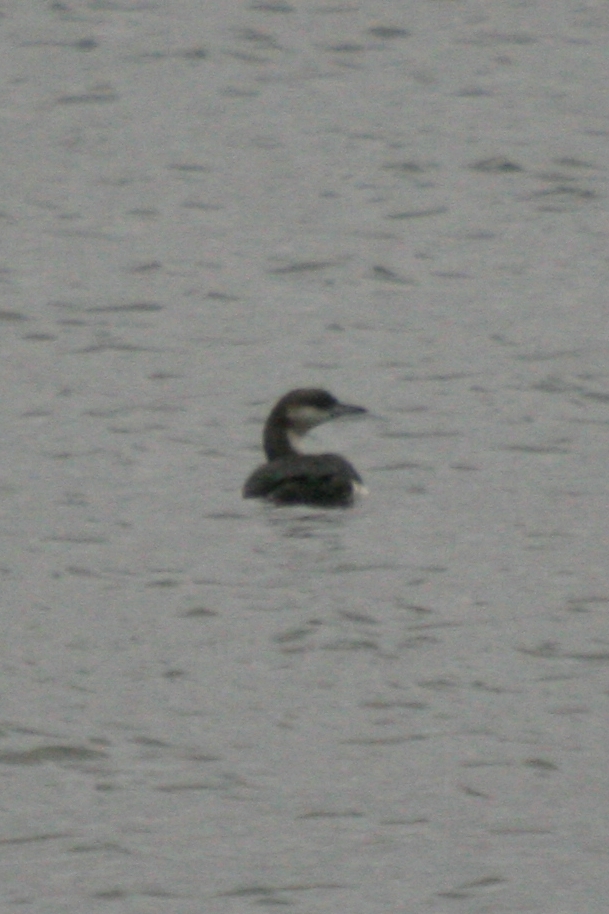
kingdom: Animalia
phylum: Chordata
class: Aves
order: Gaviiformes
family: Gaviidae
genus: Gavia
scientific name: Gavia arctica
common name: Black-throated loon
